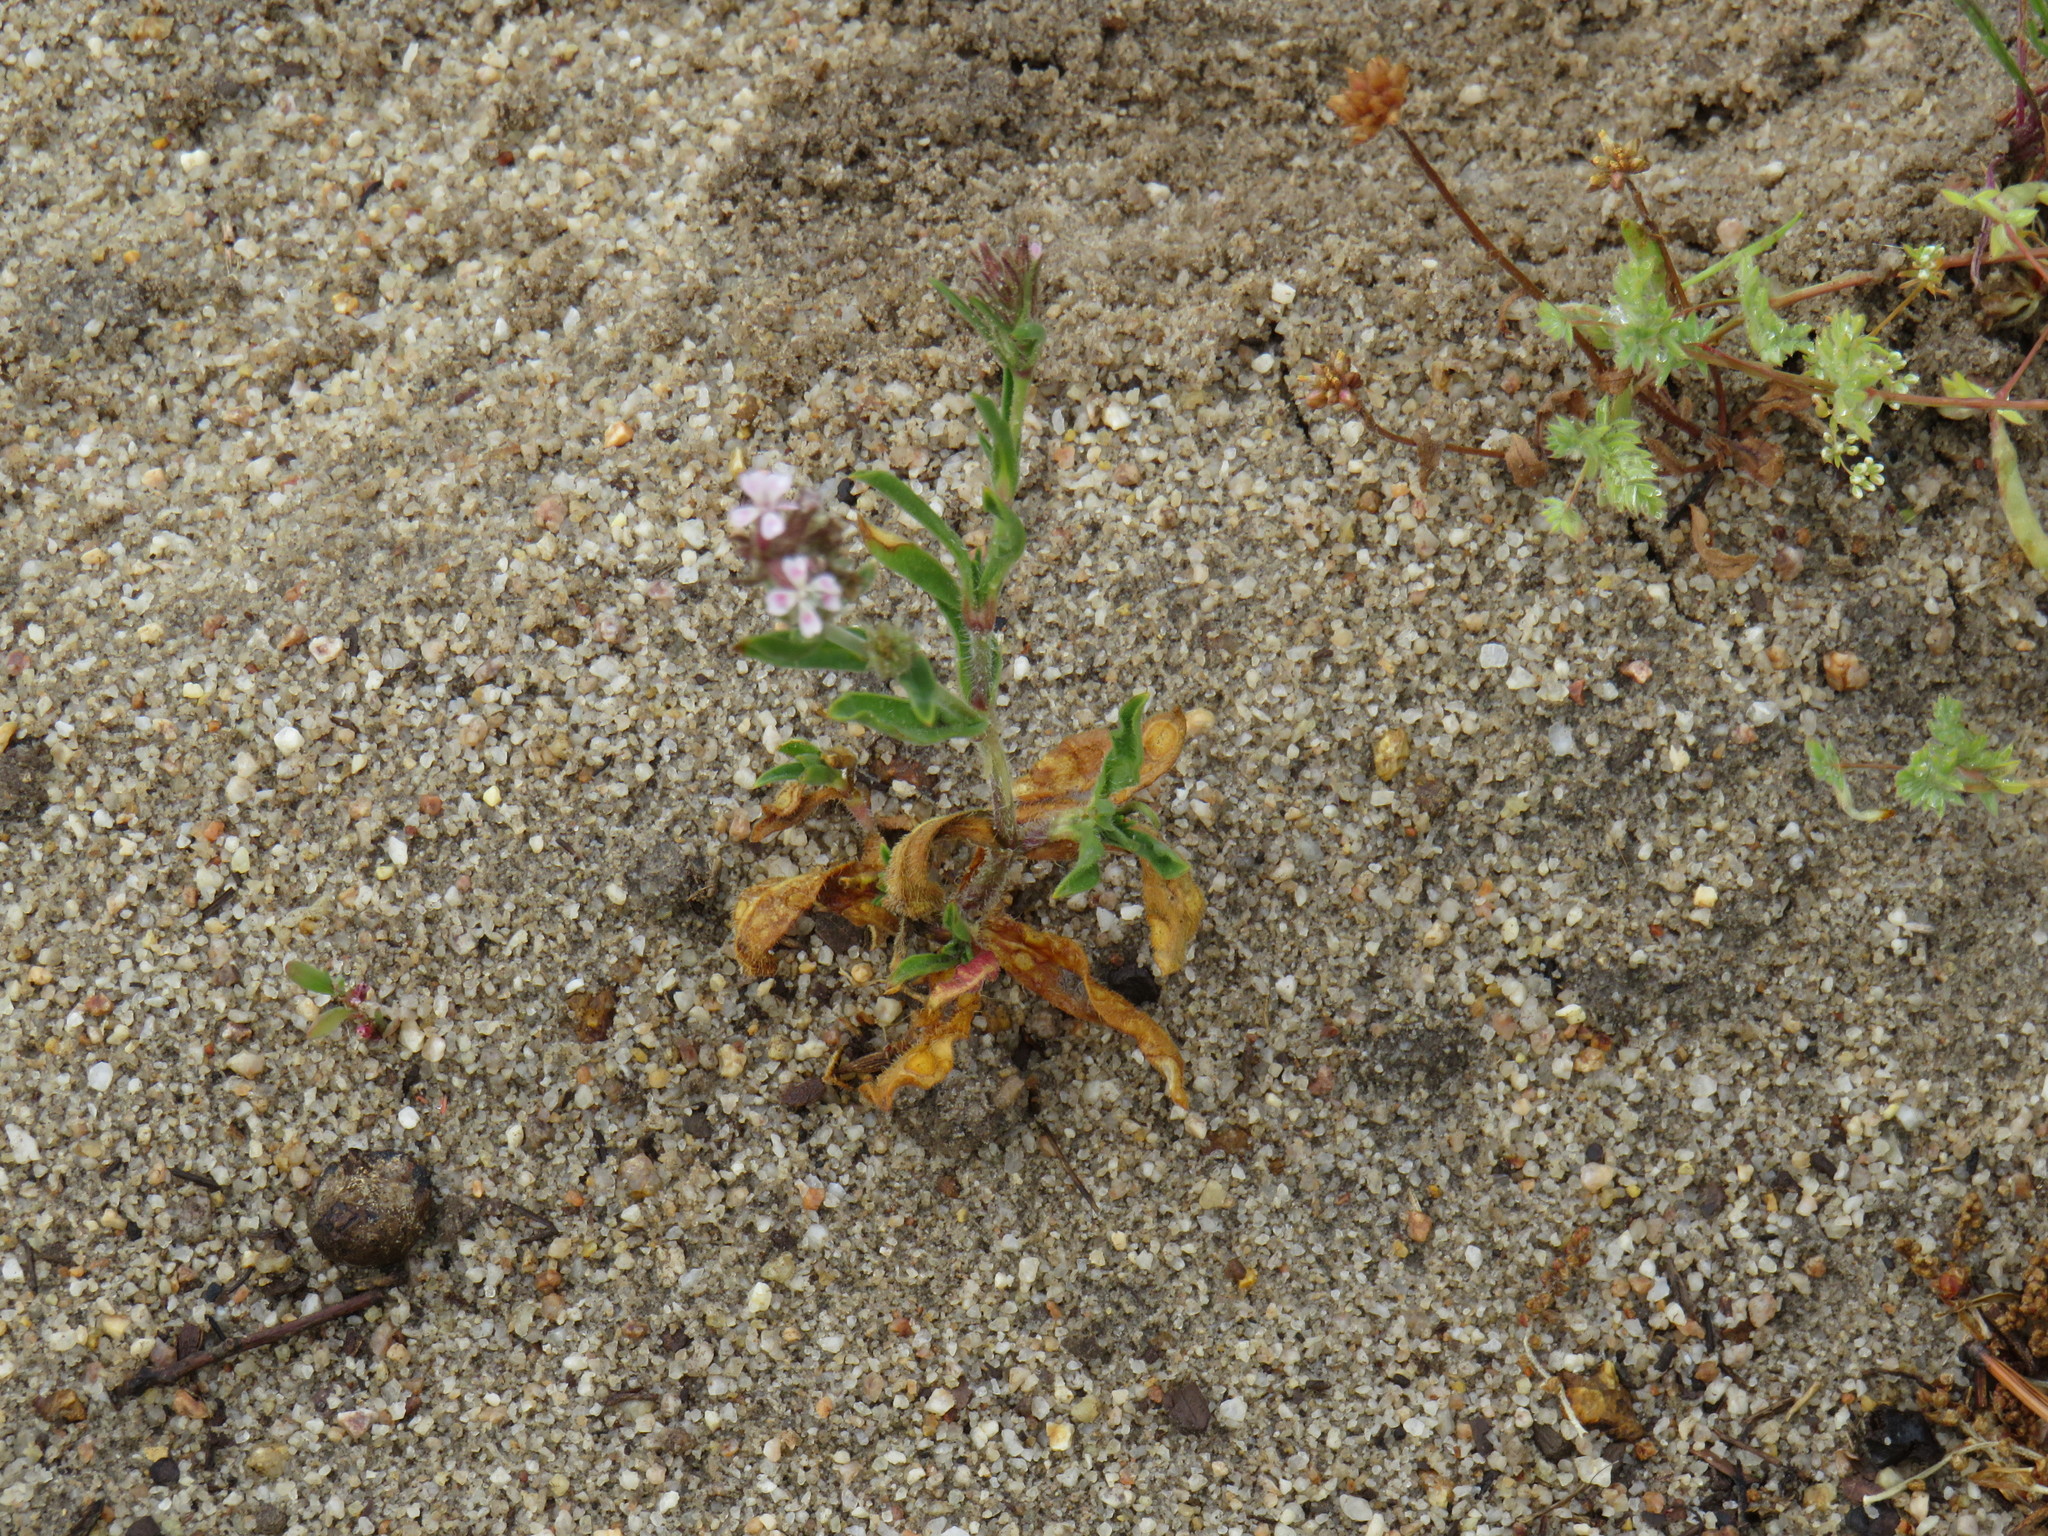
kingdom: Plantae
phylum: Tracheophyta
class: Magnoliopsida
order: Caryophyllales
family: Caryophyllaceae
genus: Silene
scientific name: Silene gallica
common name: Small-flowered catchfly
